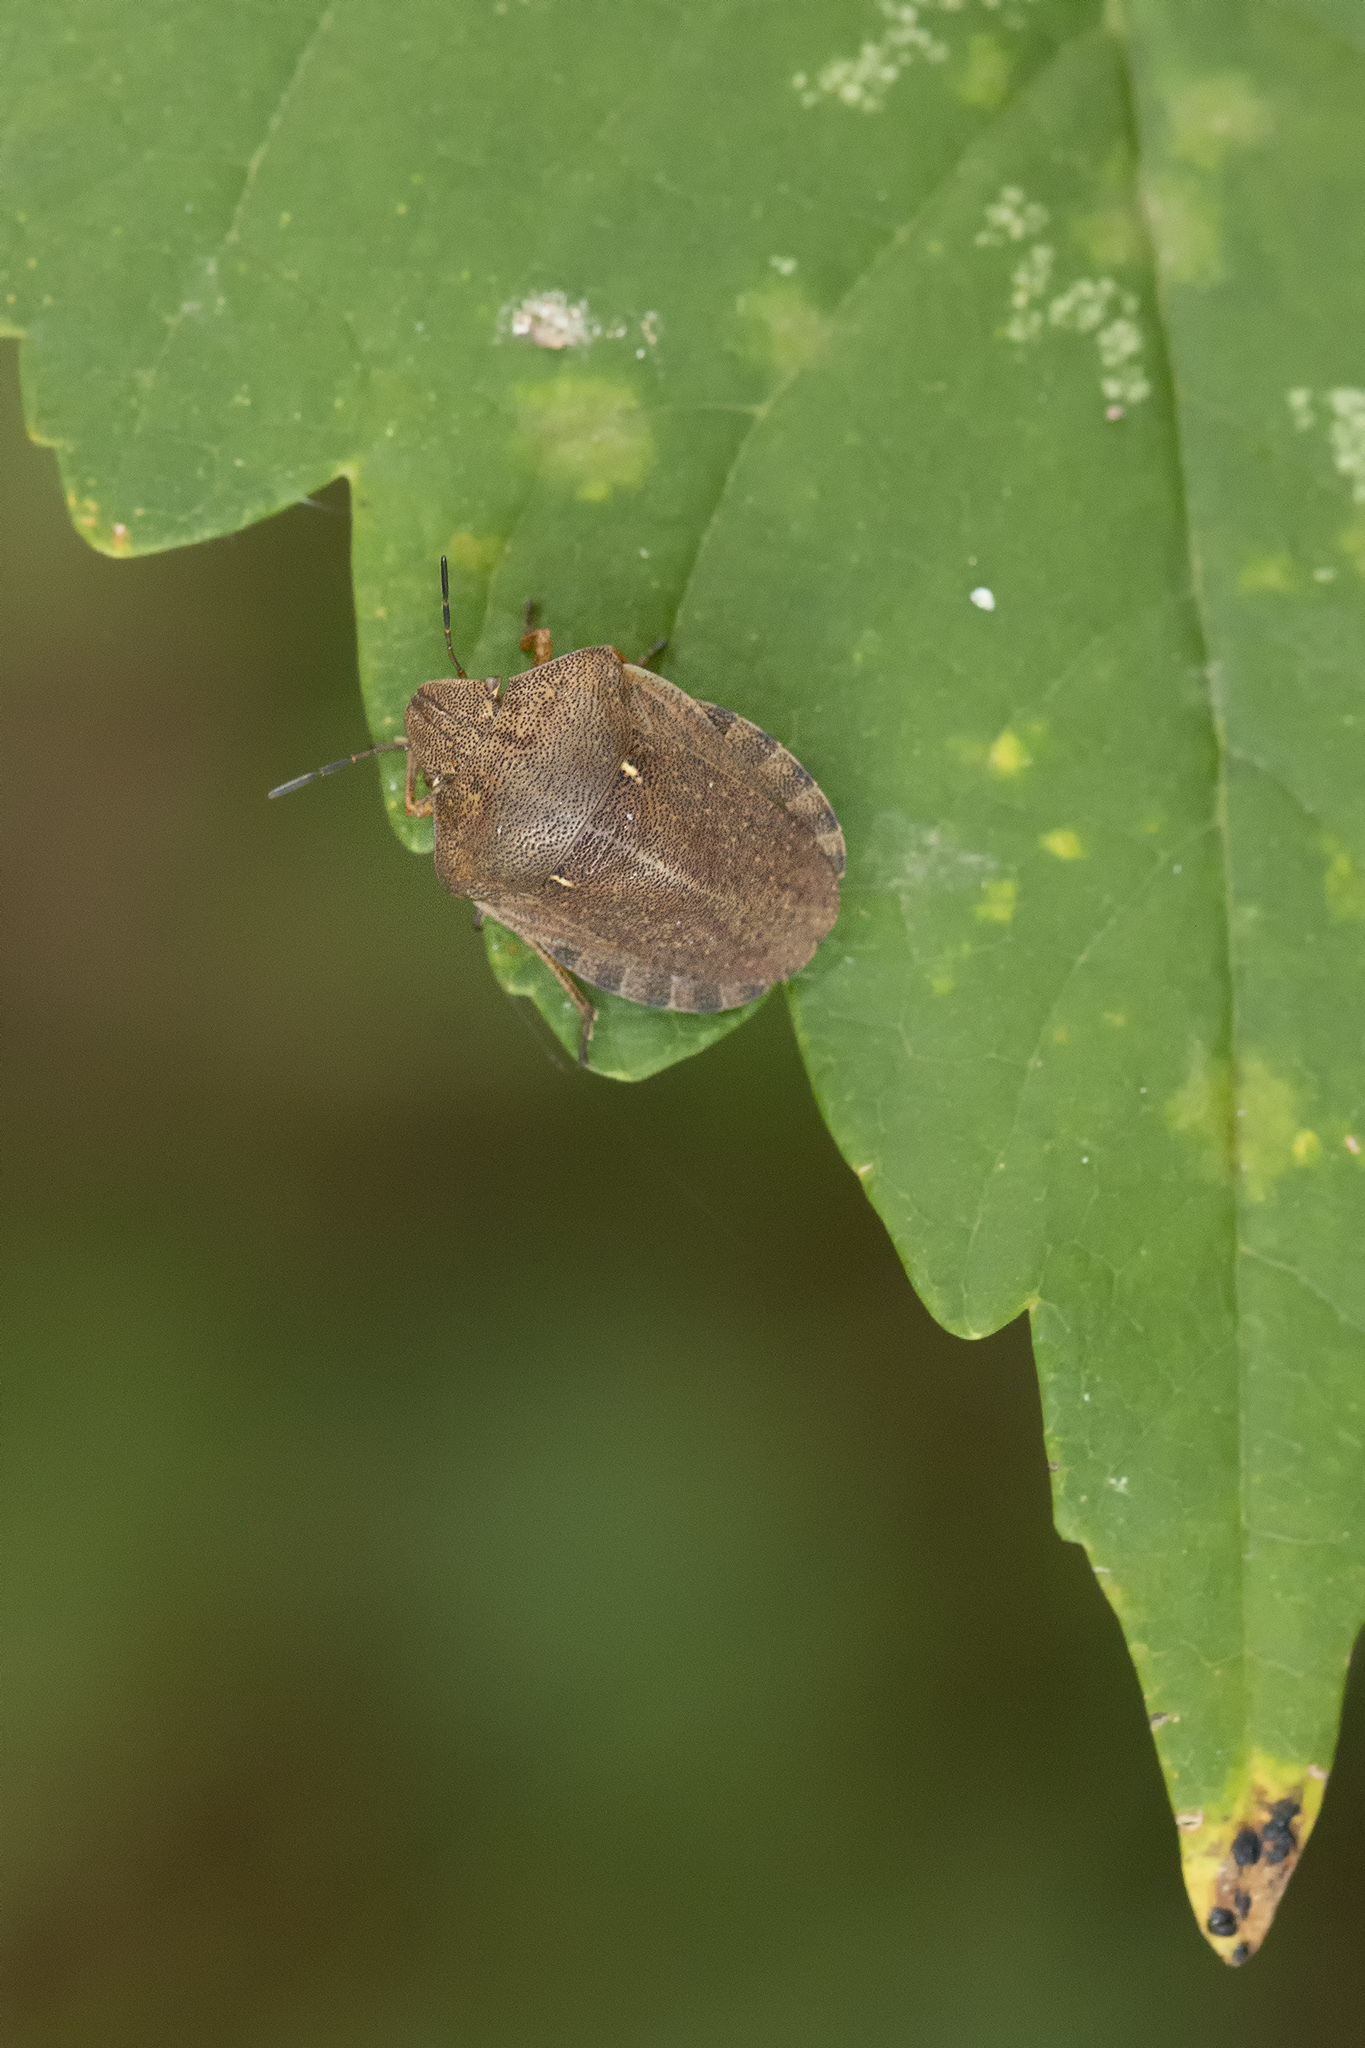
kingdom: Animalia
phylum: Arthropoda
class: Insecta
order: Hemiptera
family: Scutelleridae
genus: Eurygaster
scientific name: Eurygaster testudinaria
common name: Tortoise bug
